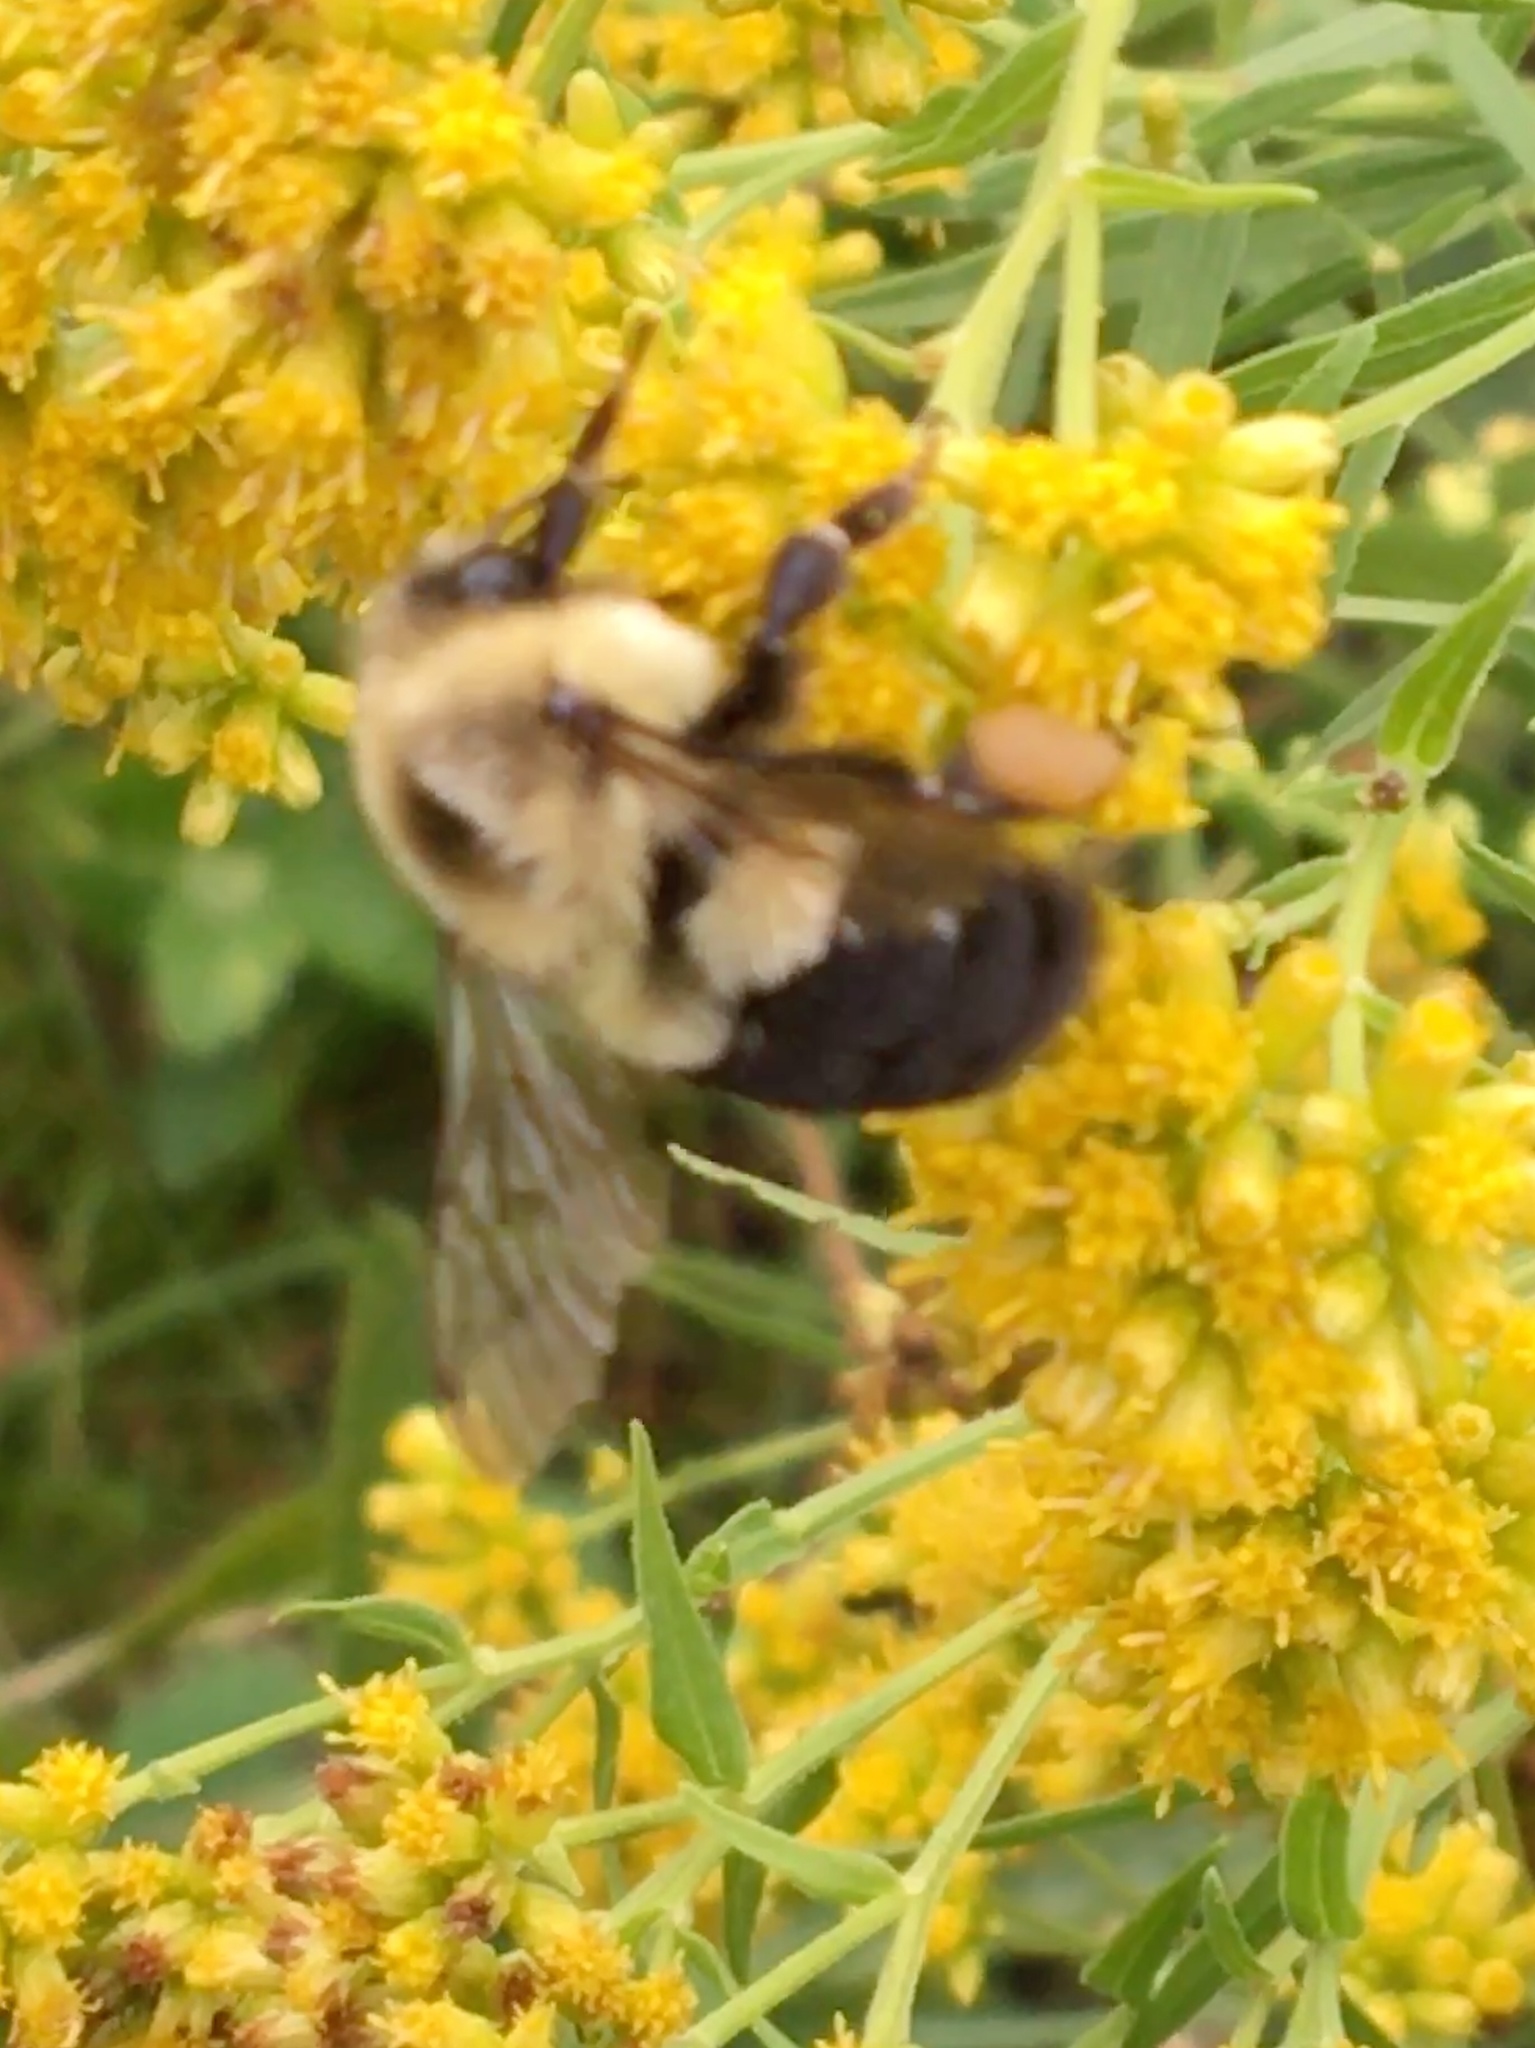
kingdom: Animalia
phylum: Arthropoda
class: Insecta
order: Hymenoptera
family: Apidae
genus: Bombus
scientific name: Bombus impatiens
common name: Common eastern bumble bee
